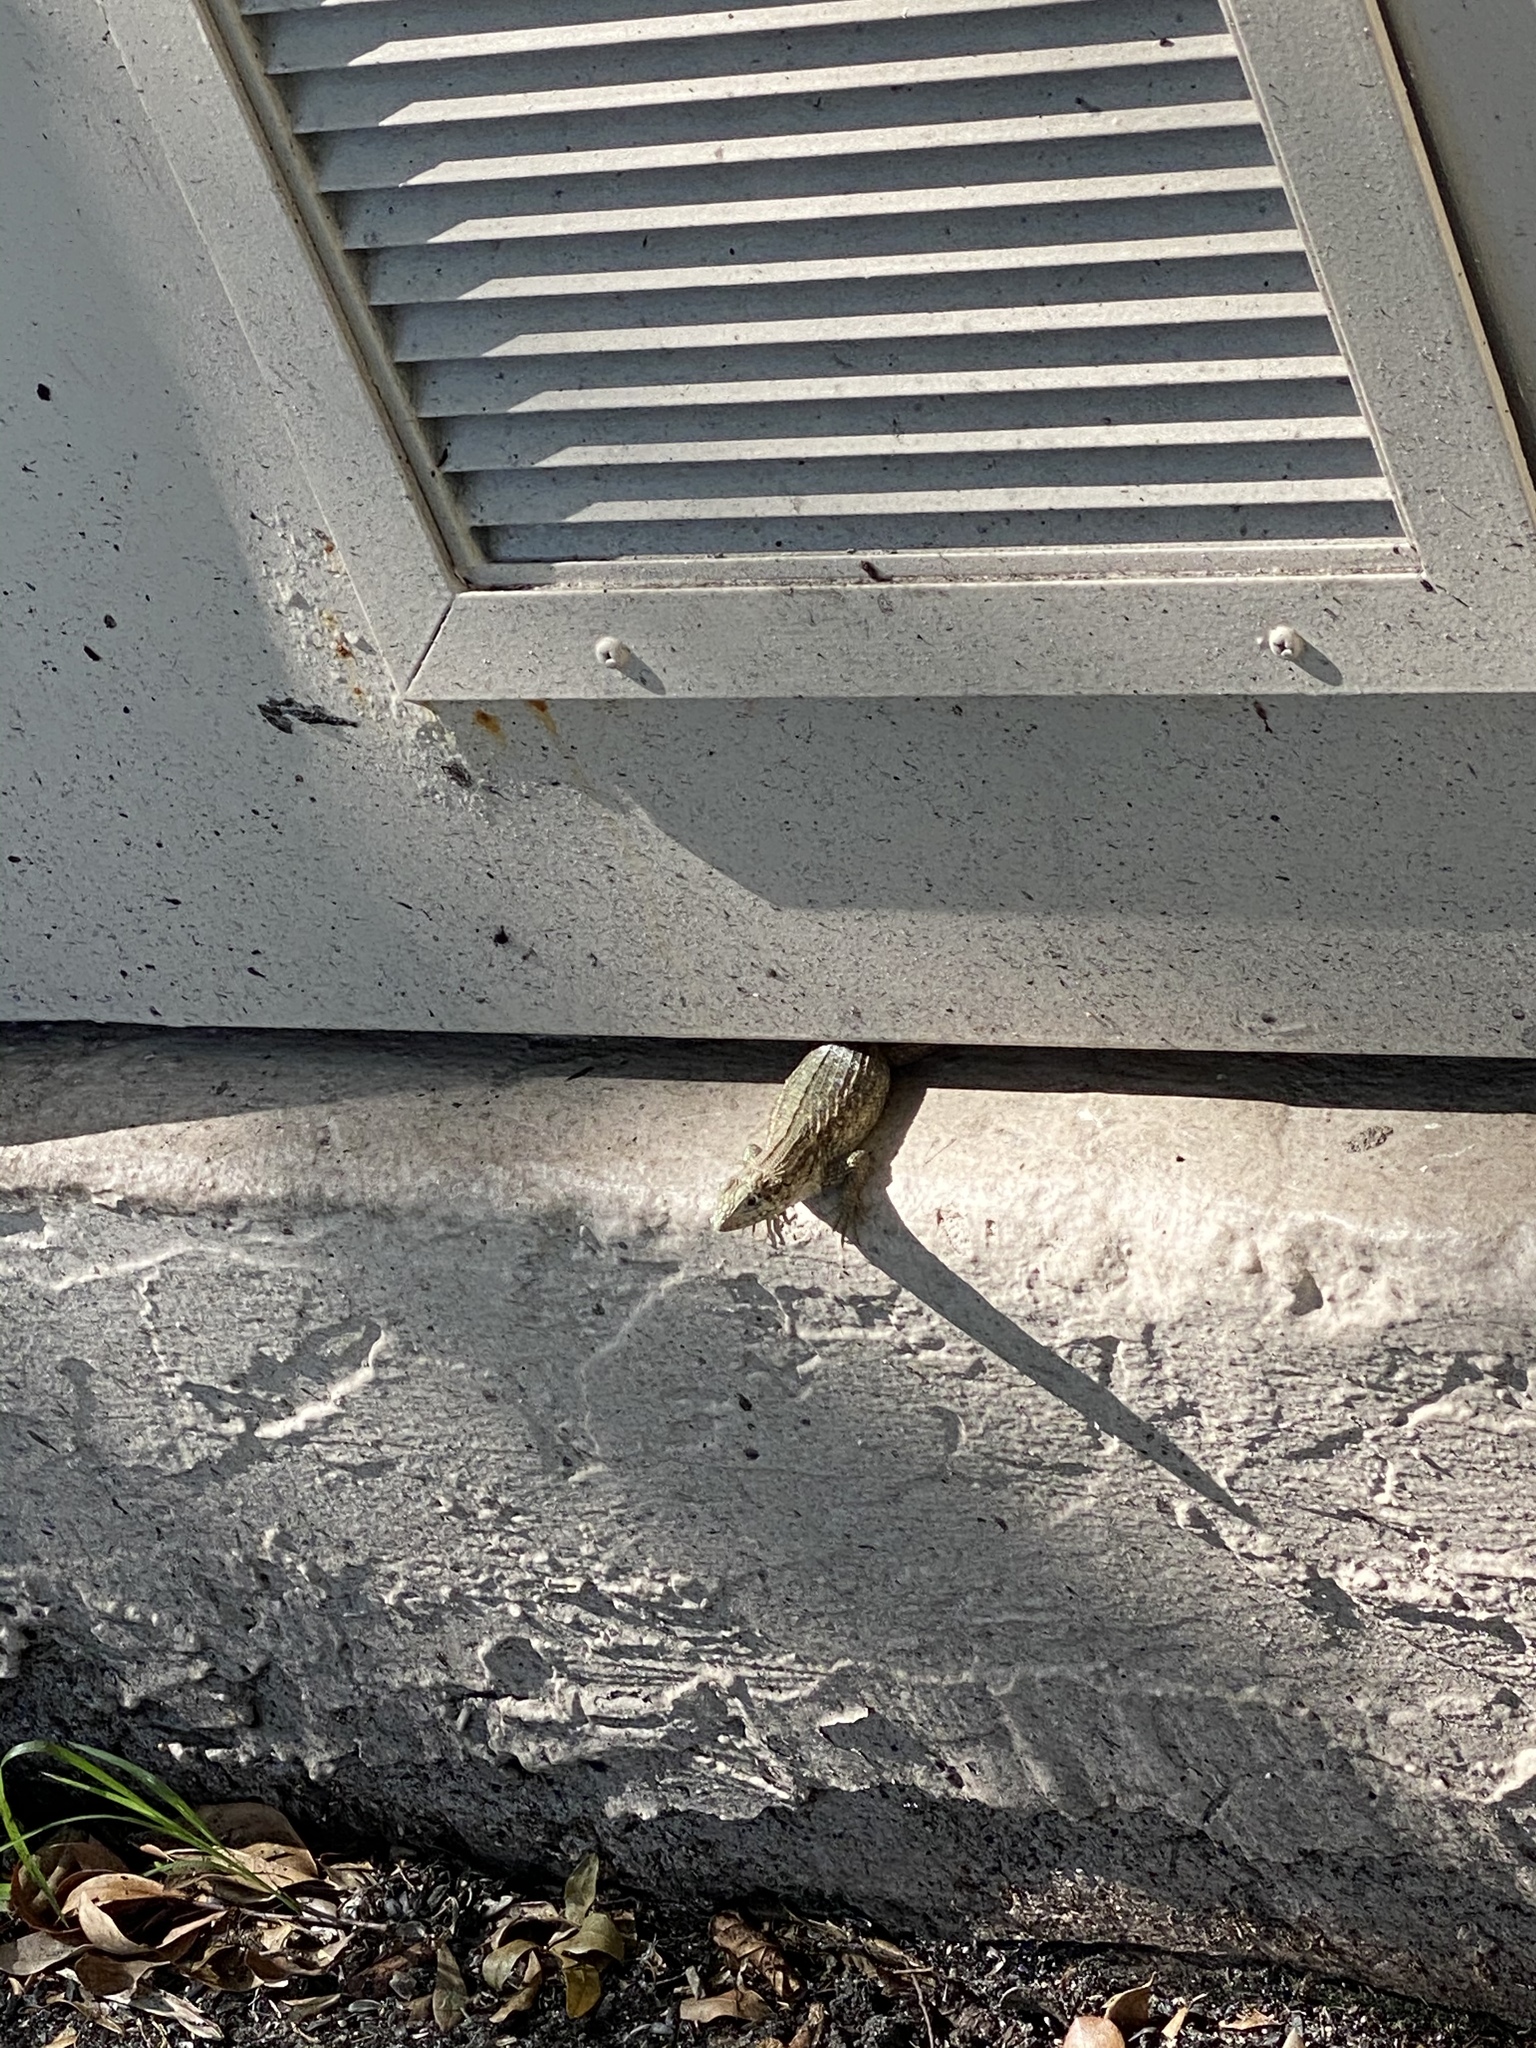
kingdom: Animalia
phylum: Chordata
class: Squamata
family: Leiocephalidae
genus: Leiocephalus
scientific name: Leiocephalus carinatus
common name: Northern curly-tailed lizard
